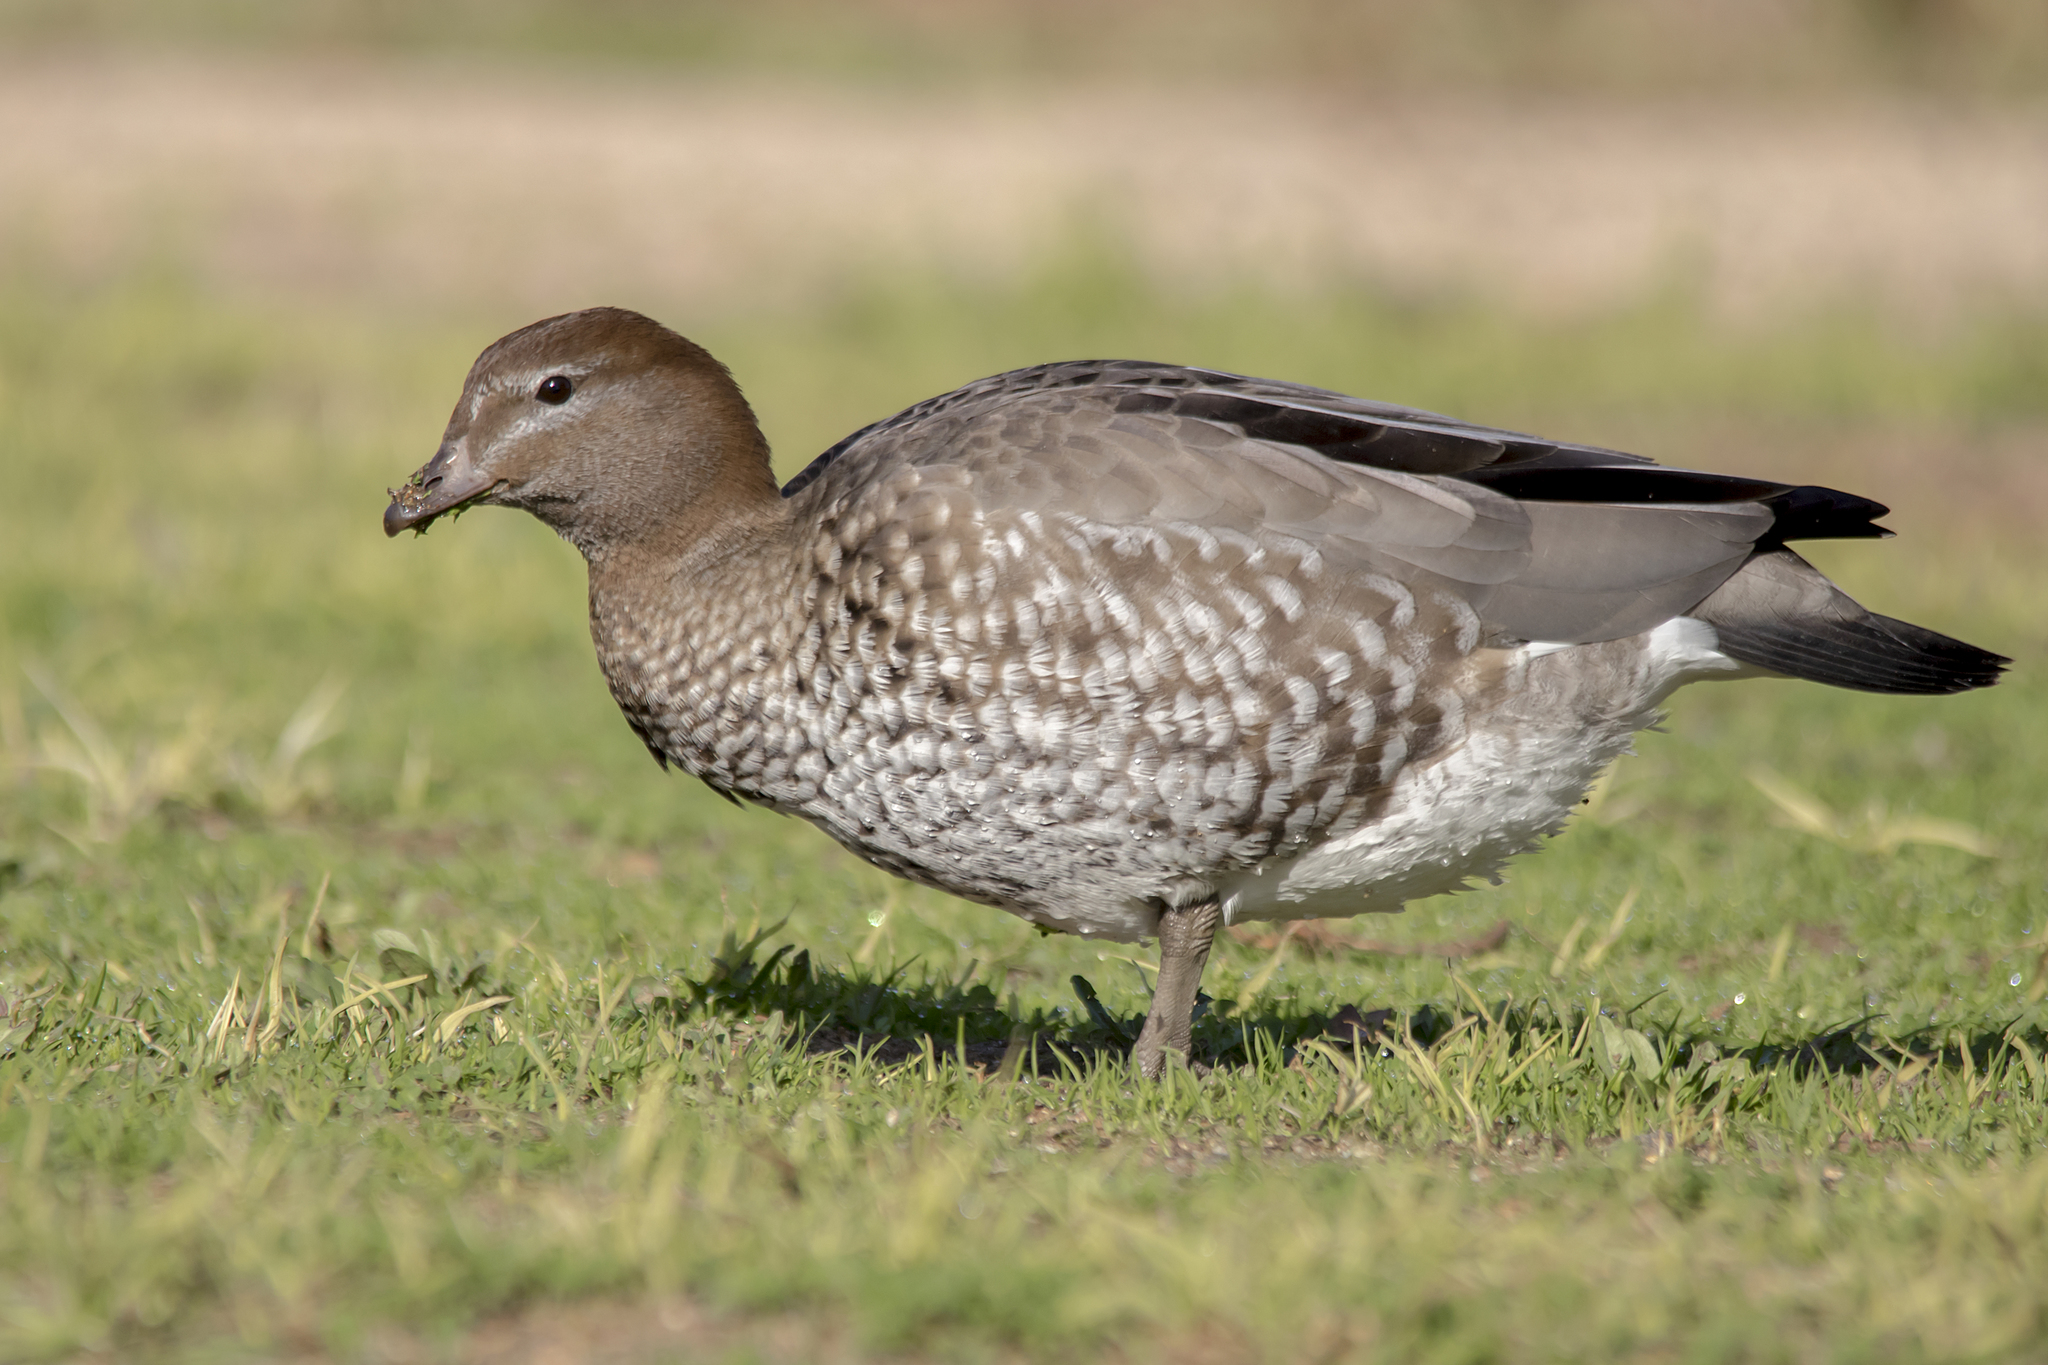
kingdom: Animalia
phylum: Chordata
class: Aves
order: Anseriformes
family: Anatidae
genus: Chenonetta
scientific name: Chenonetta jubata
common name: Maned duck
